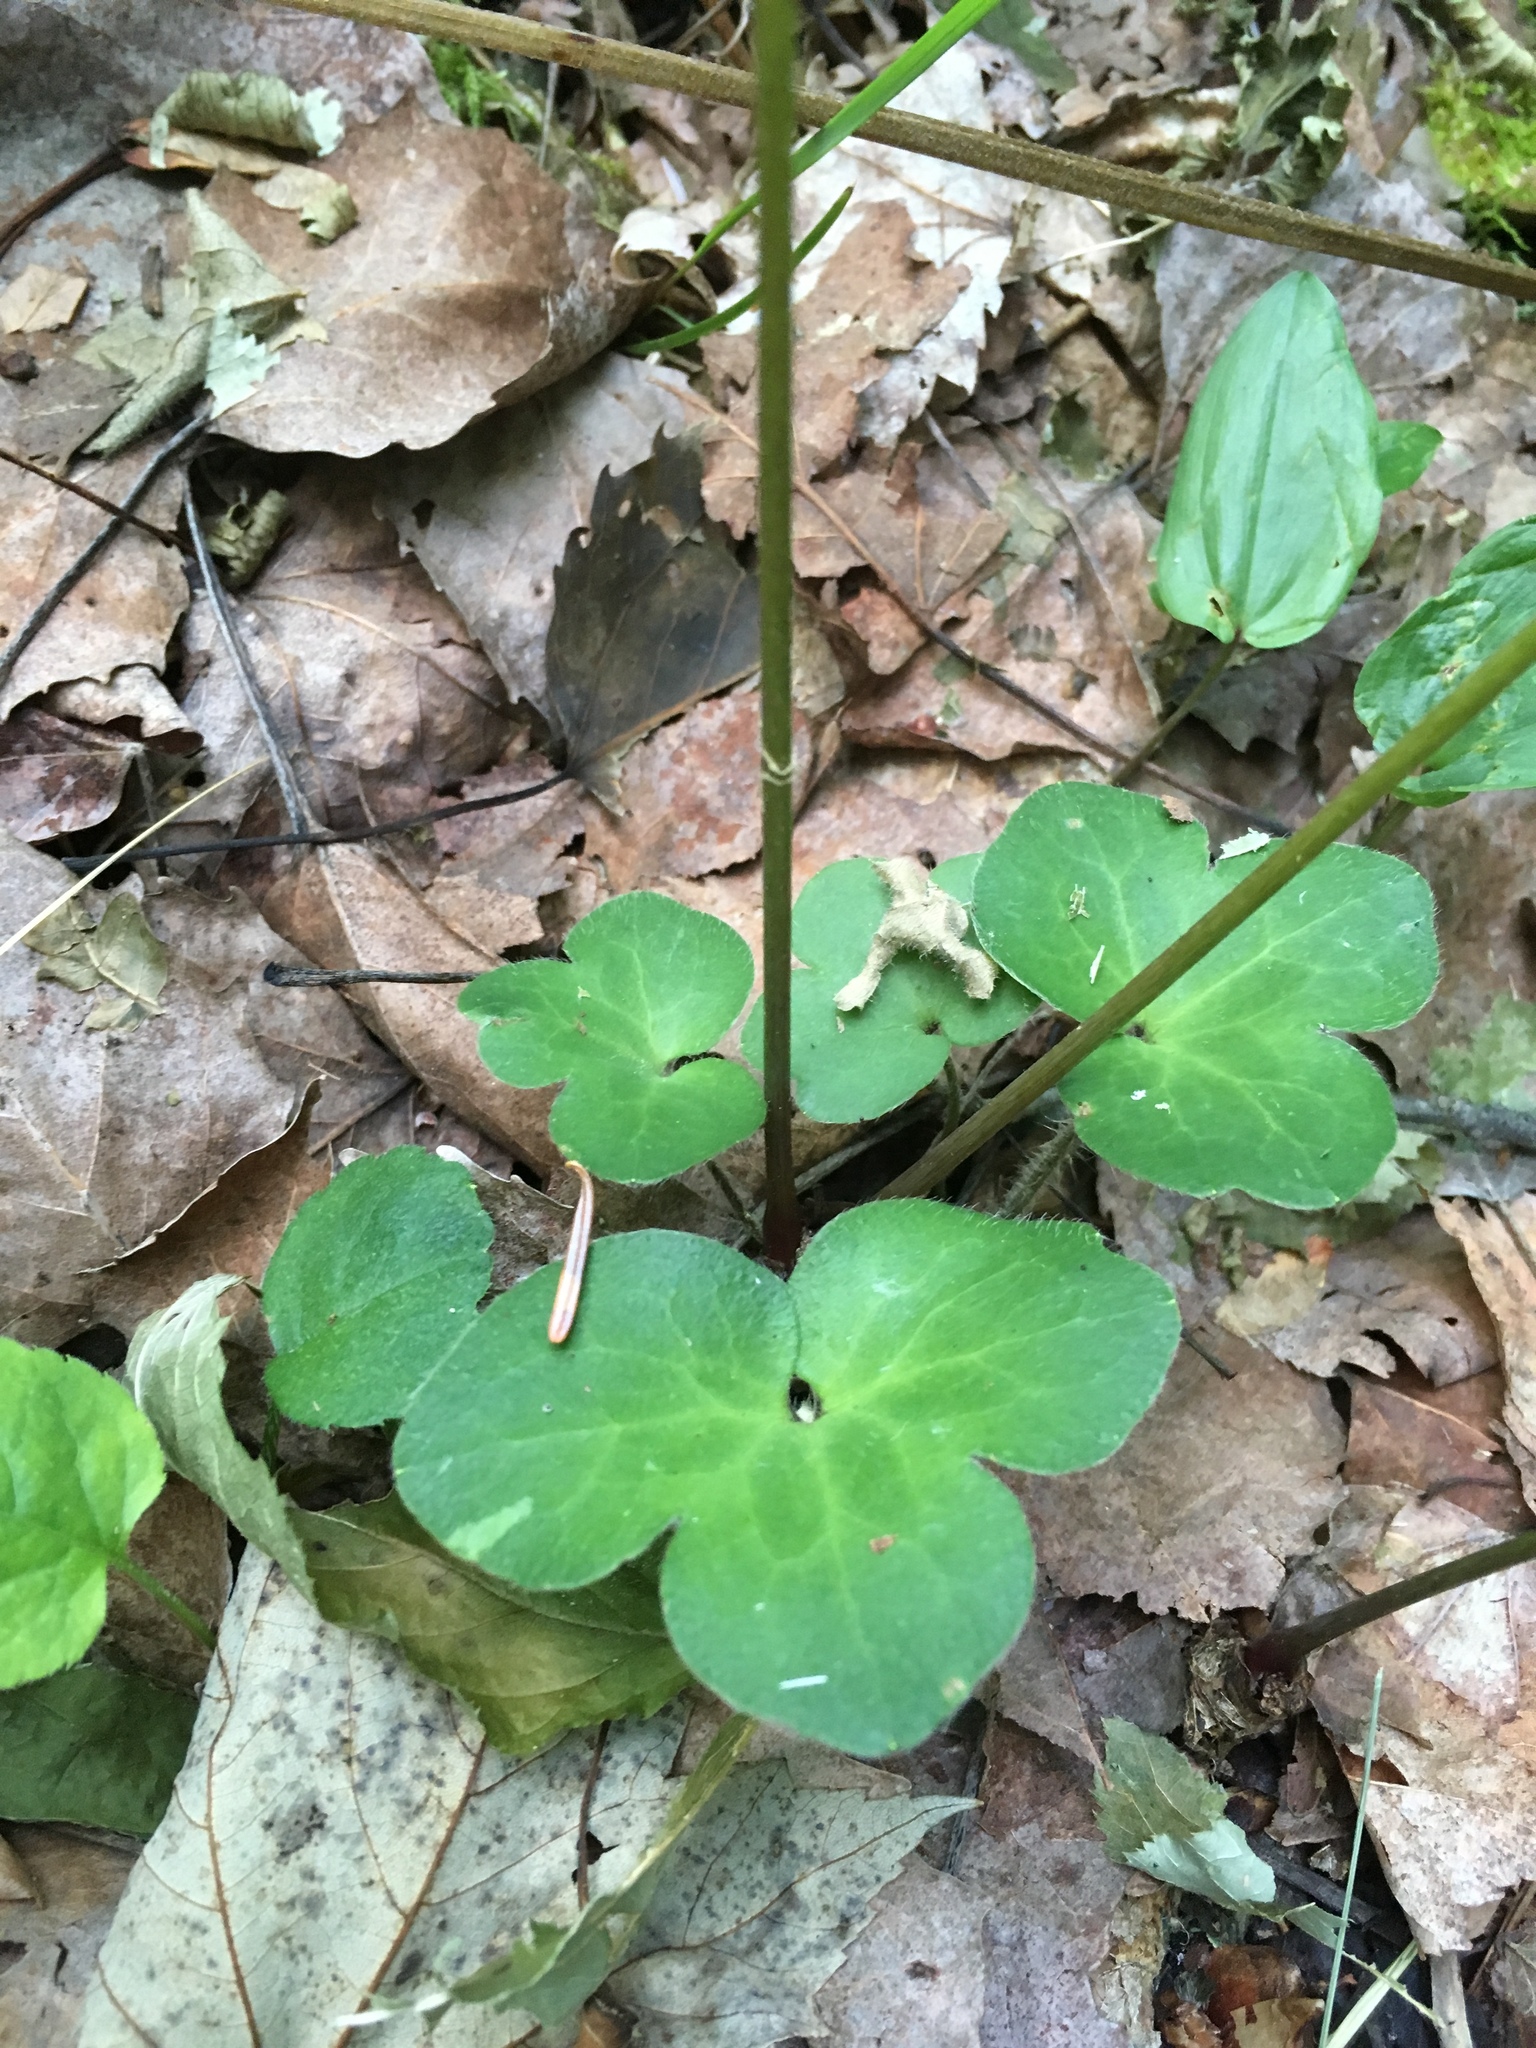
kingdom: Plantae
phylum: Tracheophyta
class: Magnoliopsida
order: Ranunculales
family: Ranunculaceae
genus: Hepatica
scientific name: Hepatica americana
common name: American hepatica
